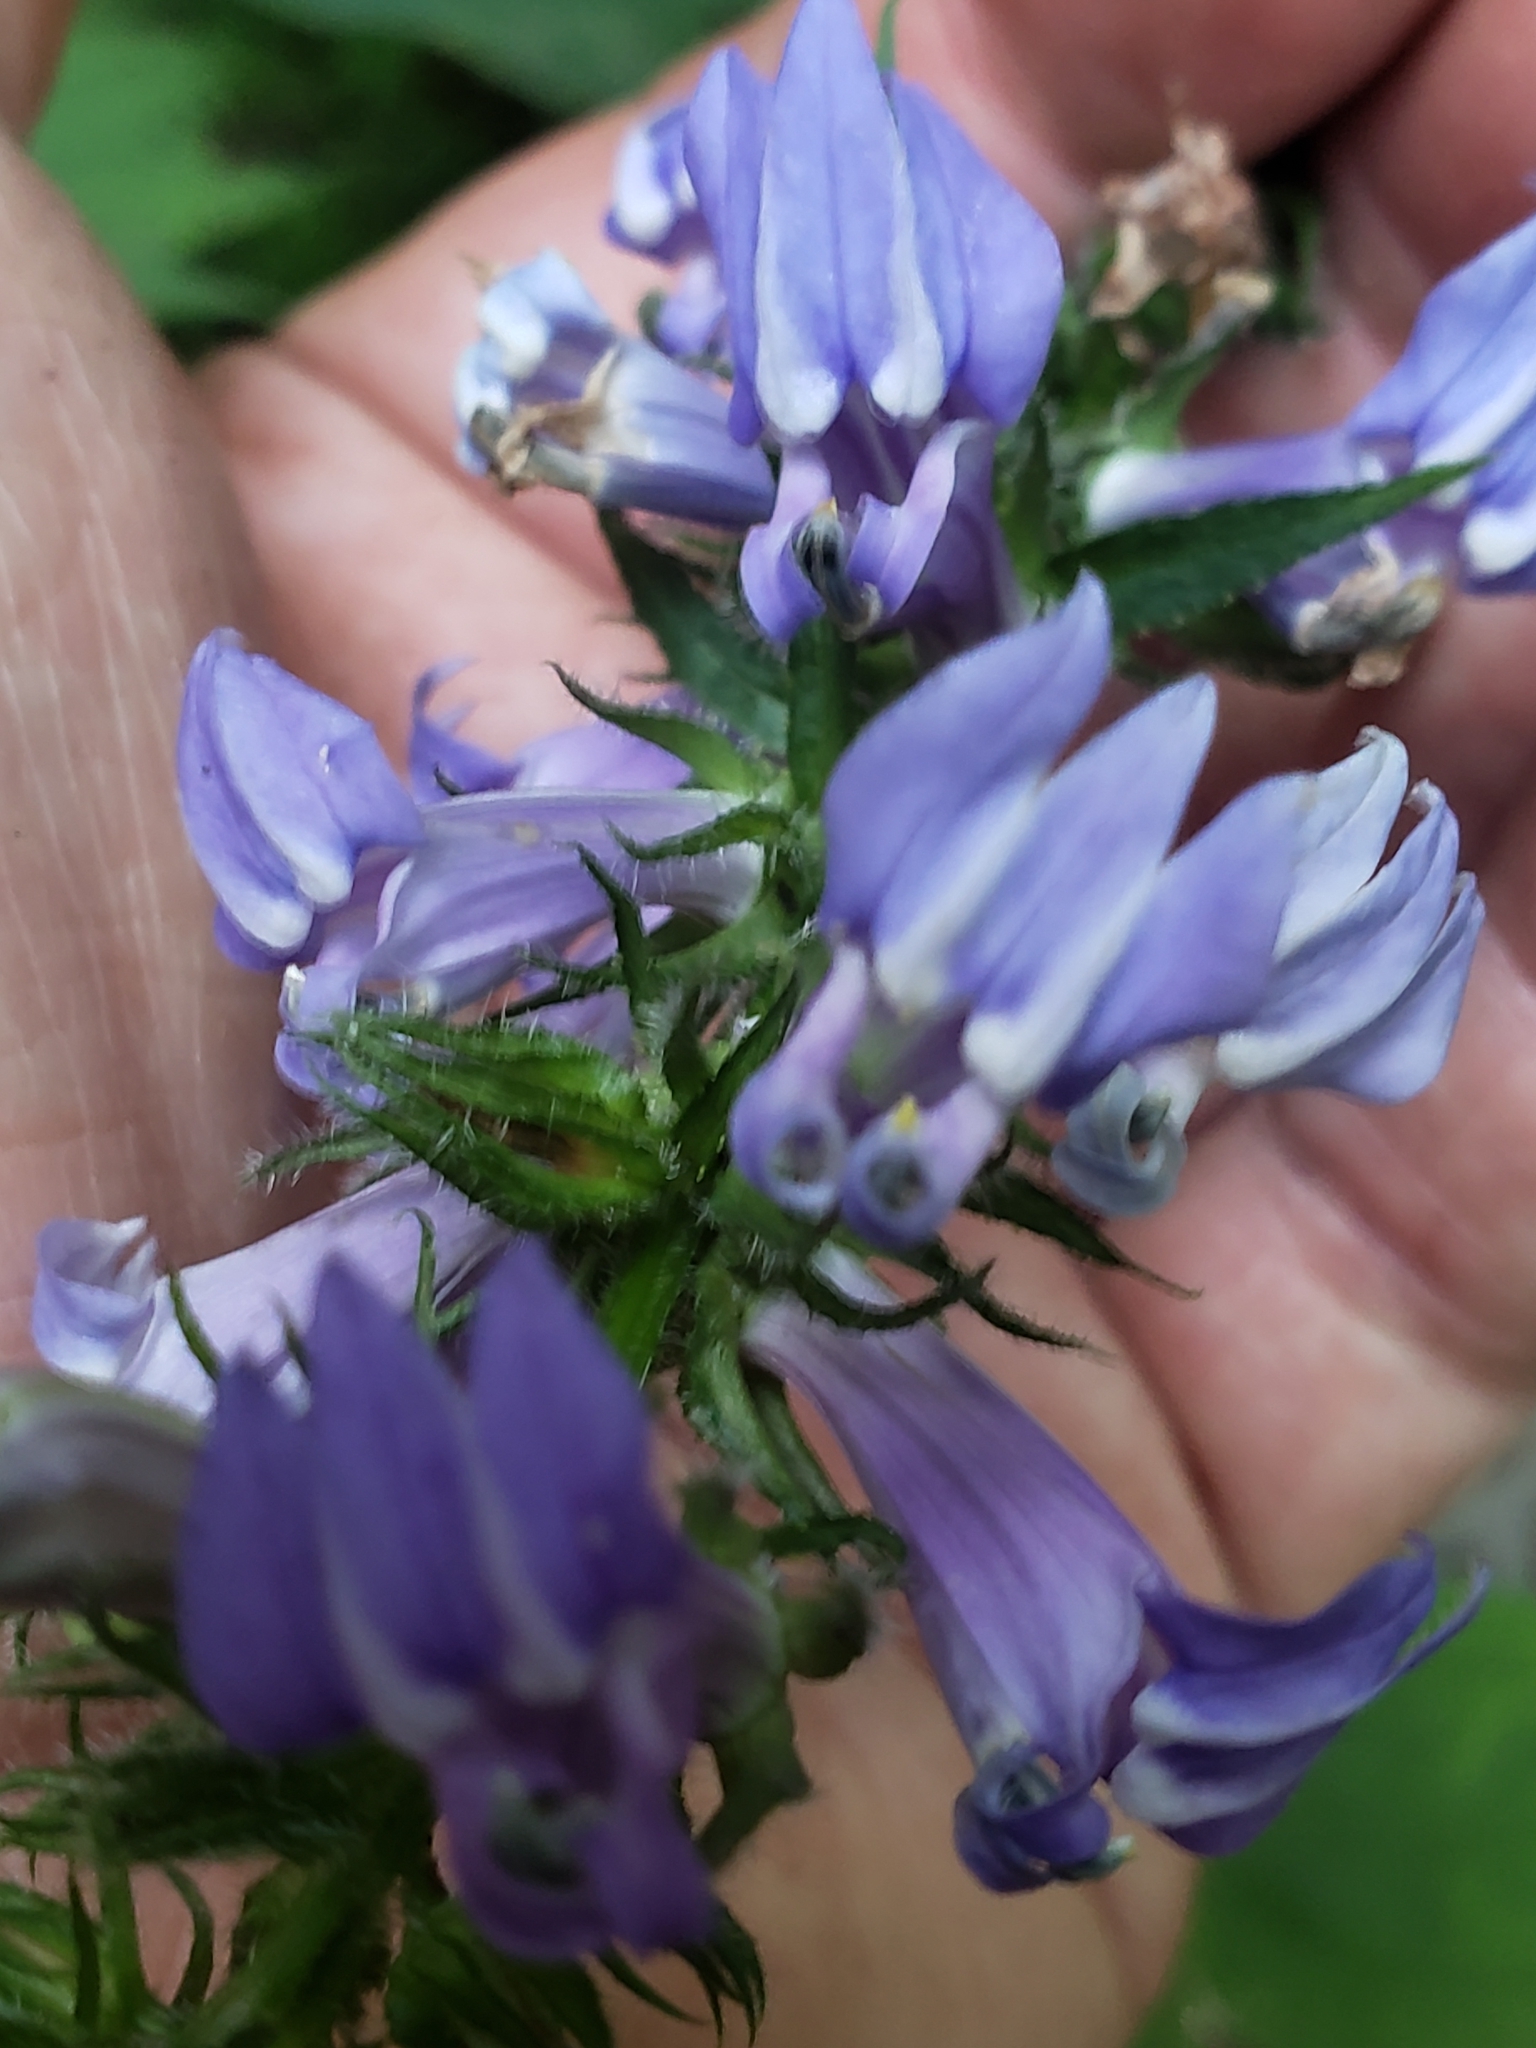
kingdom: Plantae
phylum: Tracheophyta
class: Magnoliopsida
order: Asterales
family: Campanulaceae
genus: Lobelia
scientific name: Lobelia siphilitica
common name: Great lobelia
